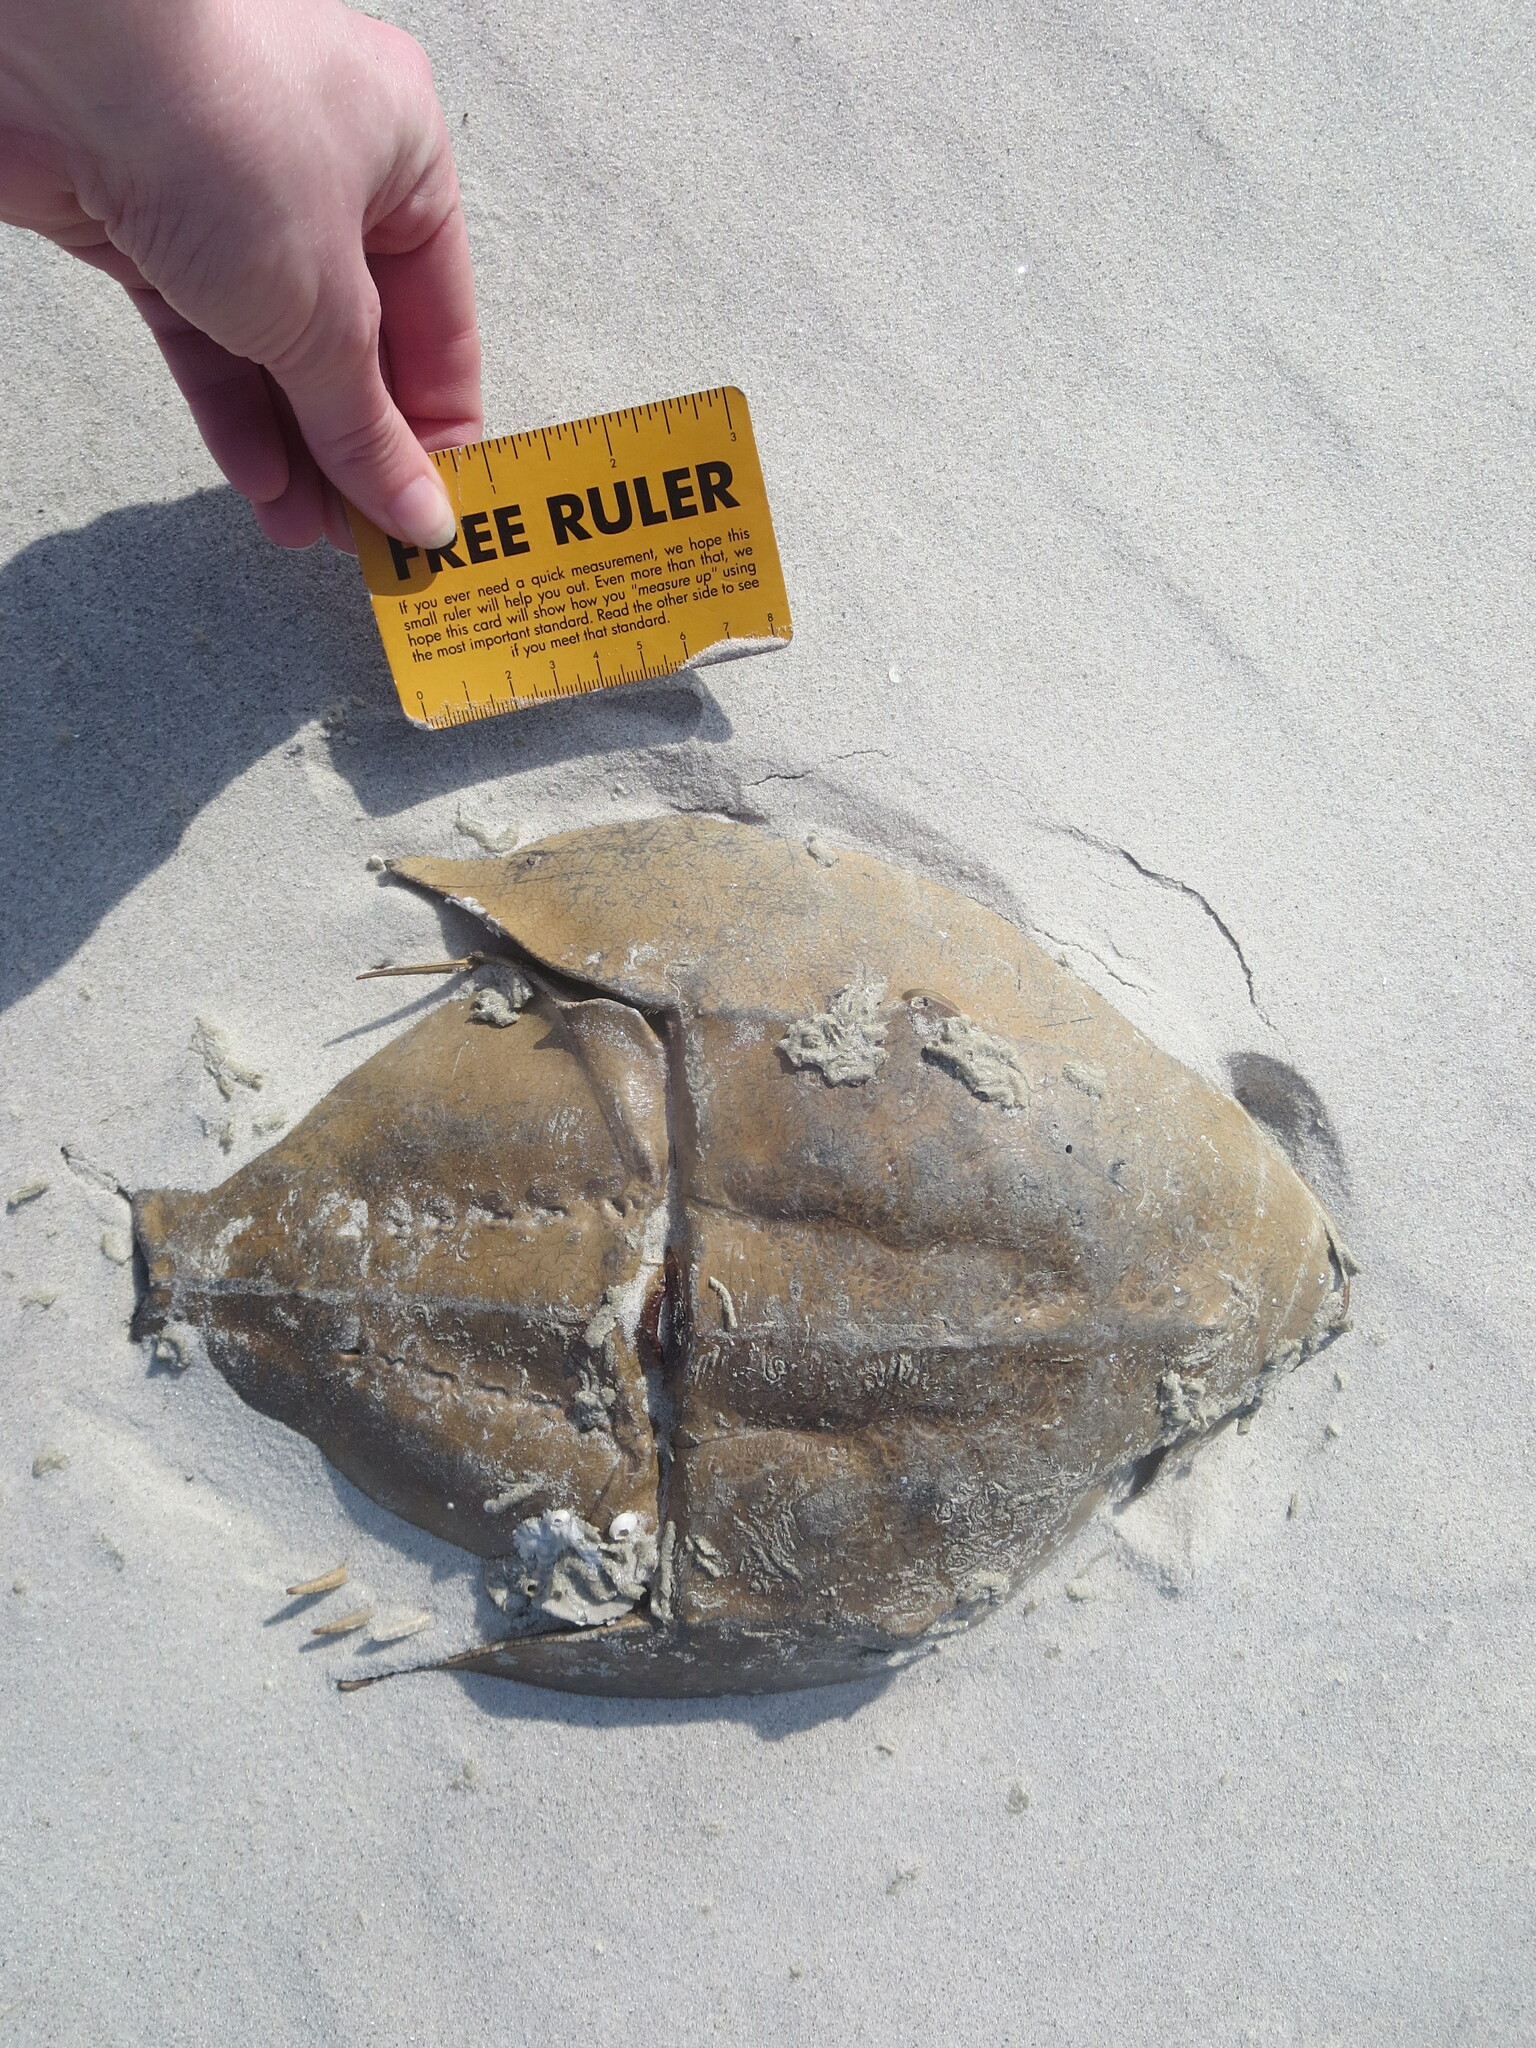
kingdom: Animalia
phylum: Arthropoda
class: Merostomata
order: Xiphosurida
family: Limulidae
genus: Limulus
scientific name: Limulus polyphemus
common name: Horseshoe crab
